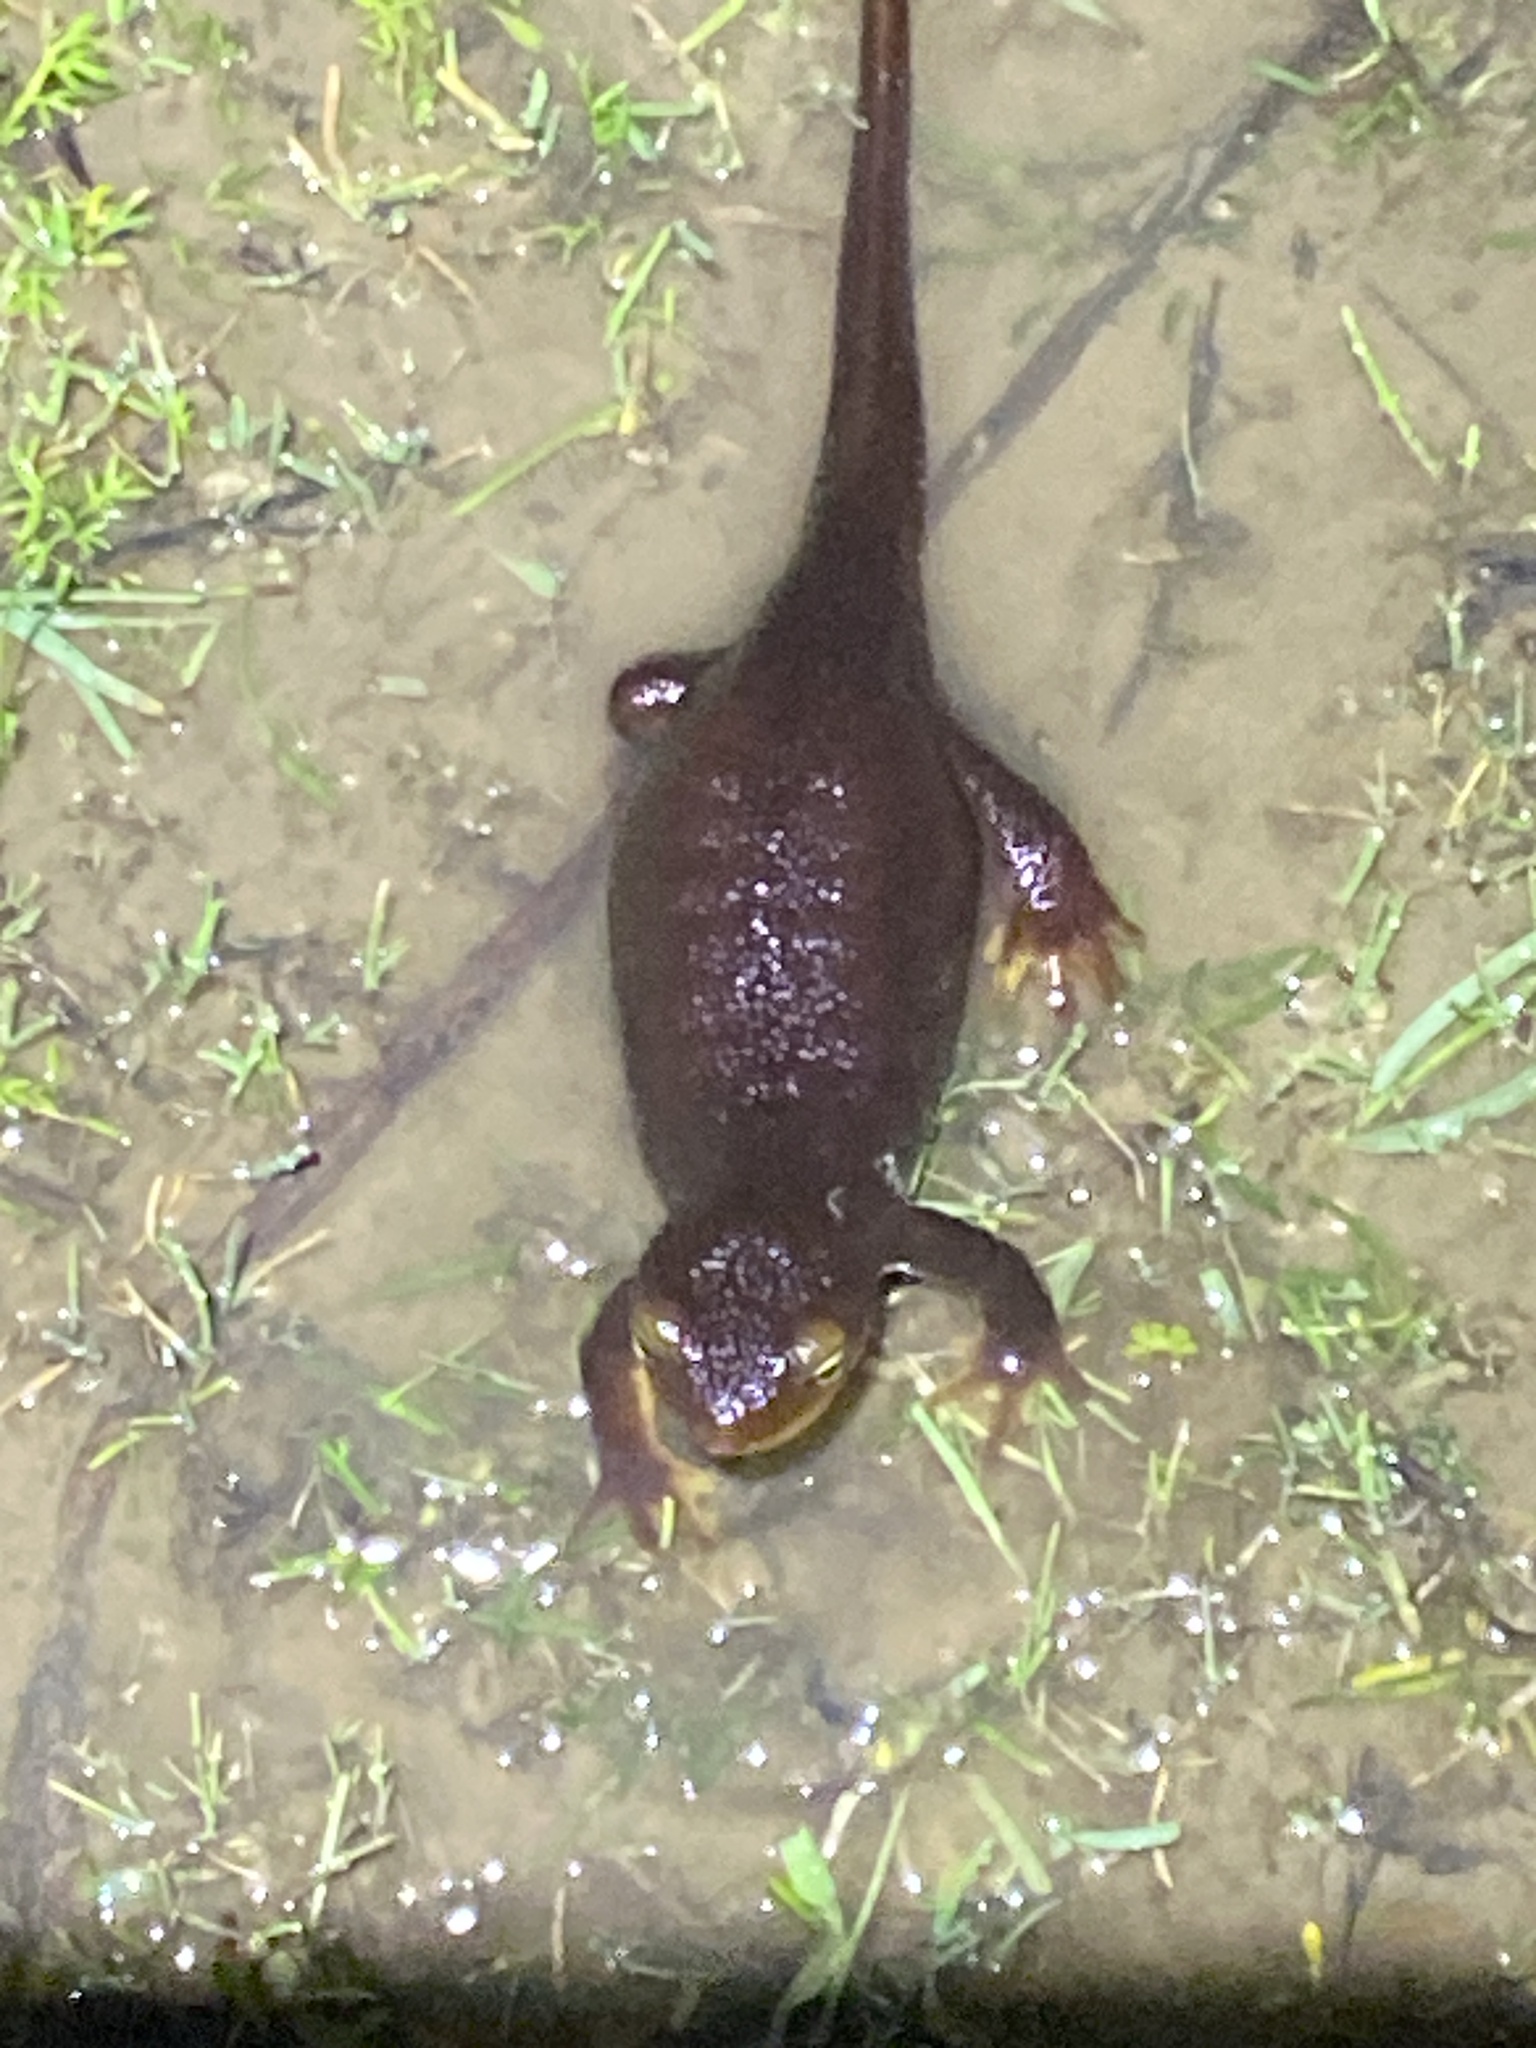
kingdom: Animalia
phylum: Chordata
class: Amphibia
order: Caudata
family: Salamandridae
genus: Taricha
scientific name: Taricha torosa
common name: California newt
